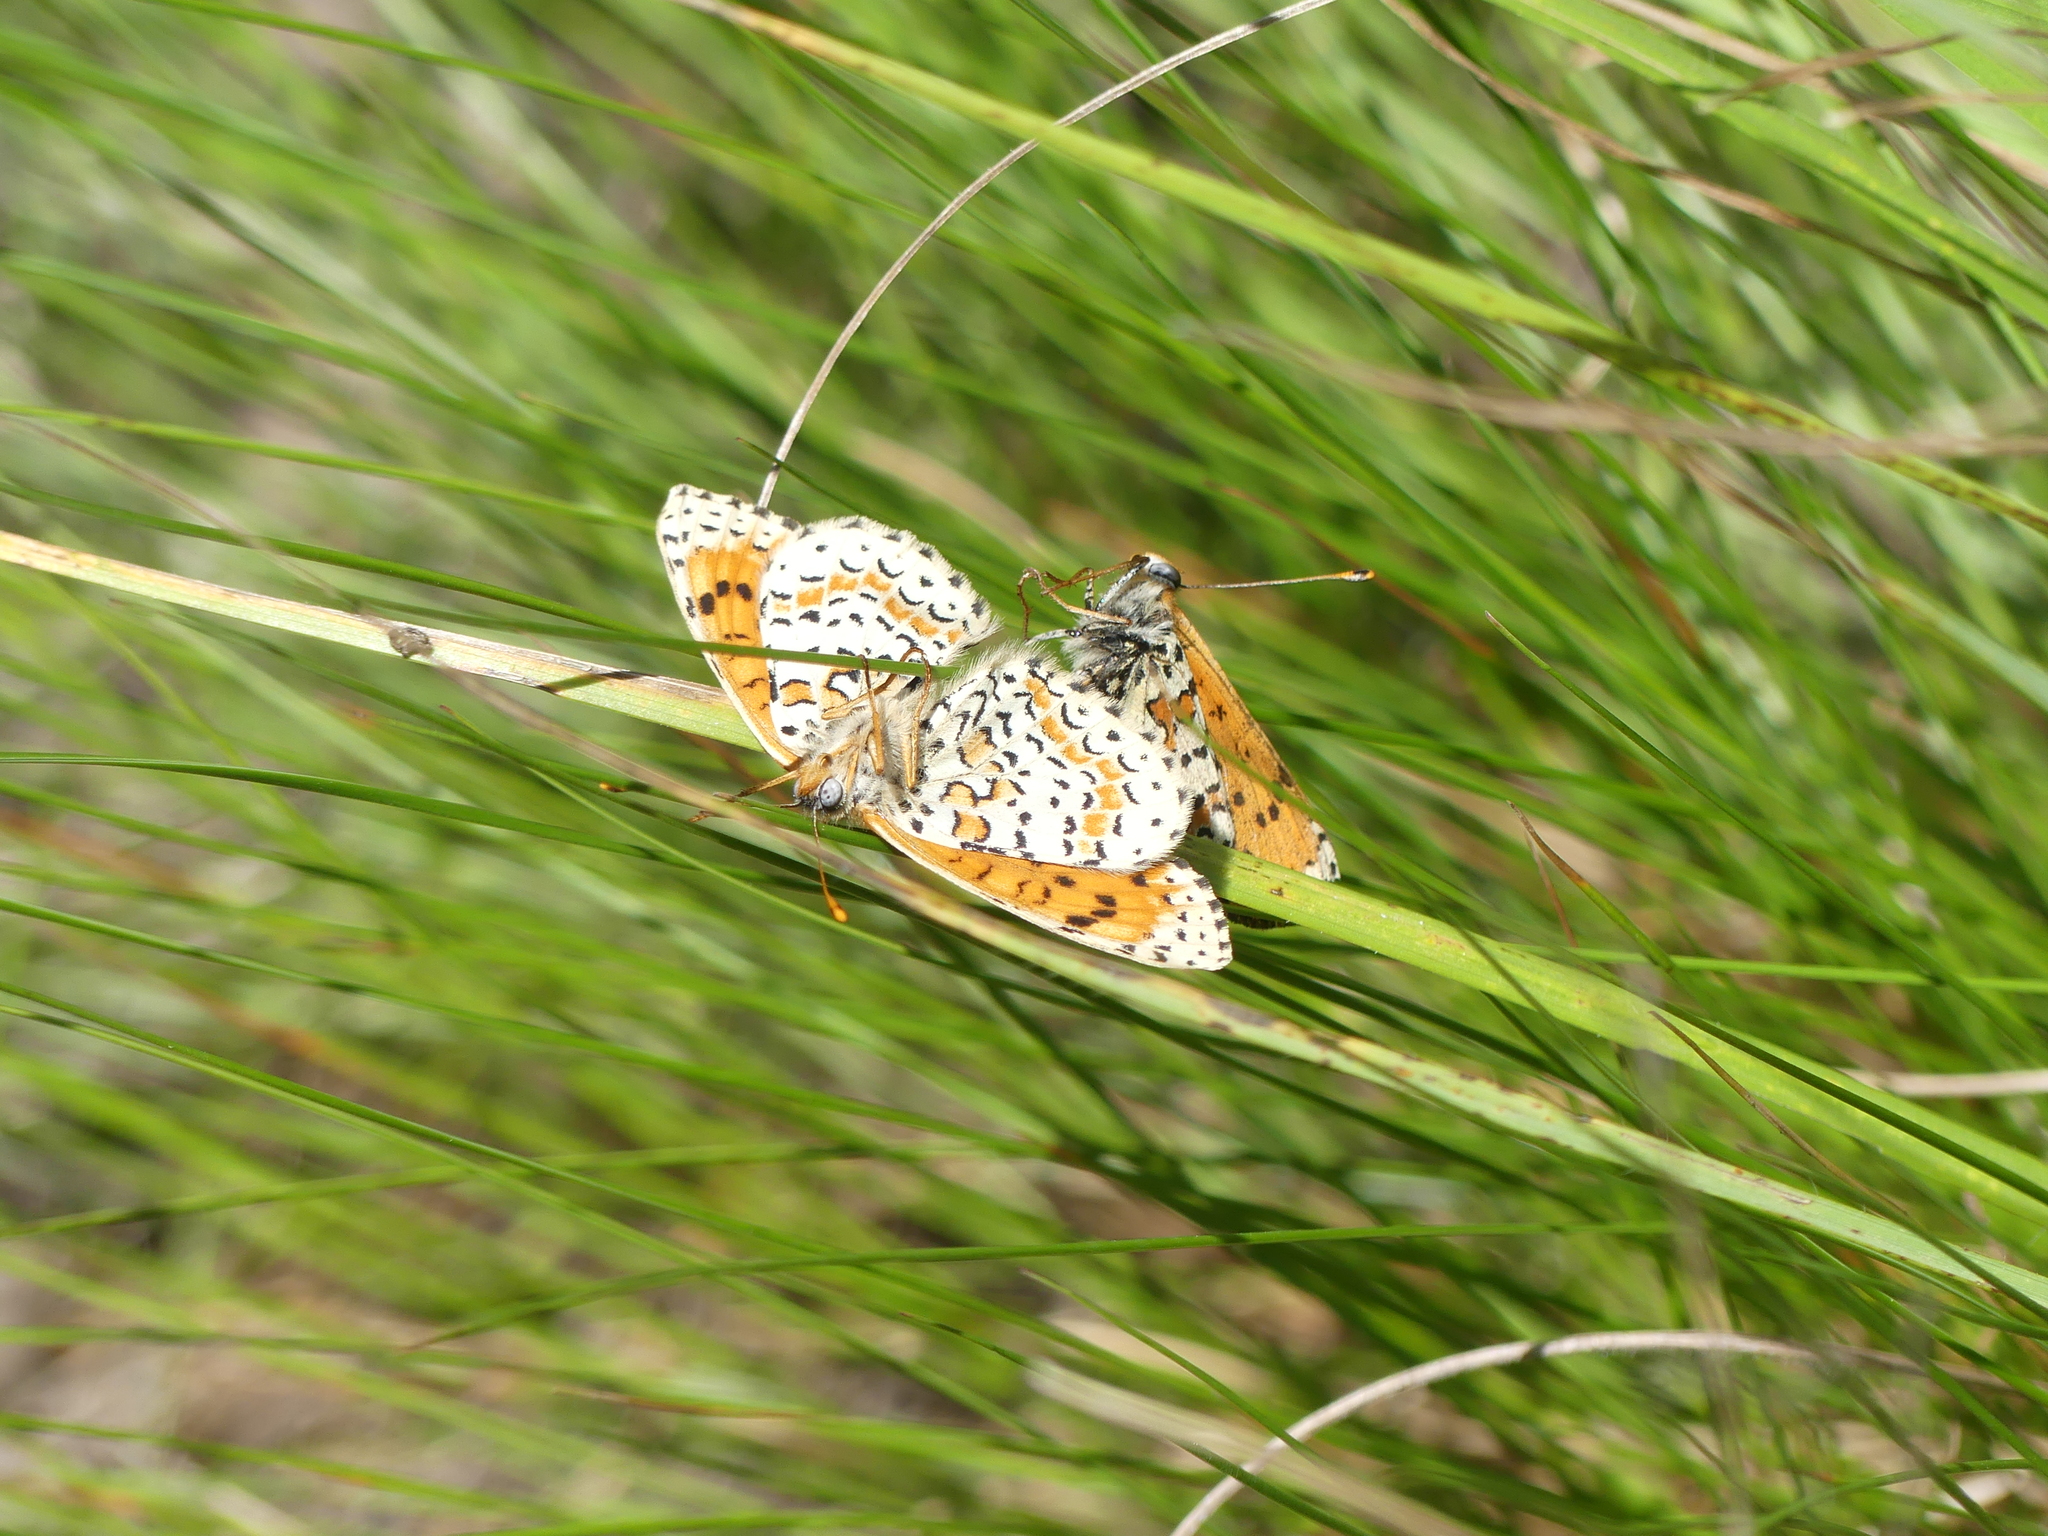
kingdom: Animalia
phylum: Arthropoda
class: Insecta
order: Lepidoptera
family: Nymphalidae
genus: Melitaea
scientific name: Melitaea didyma
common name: Spotted fritillary
